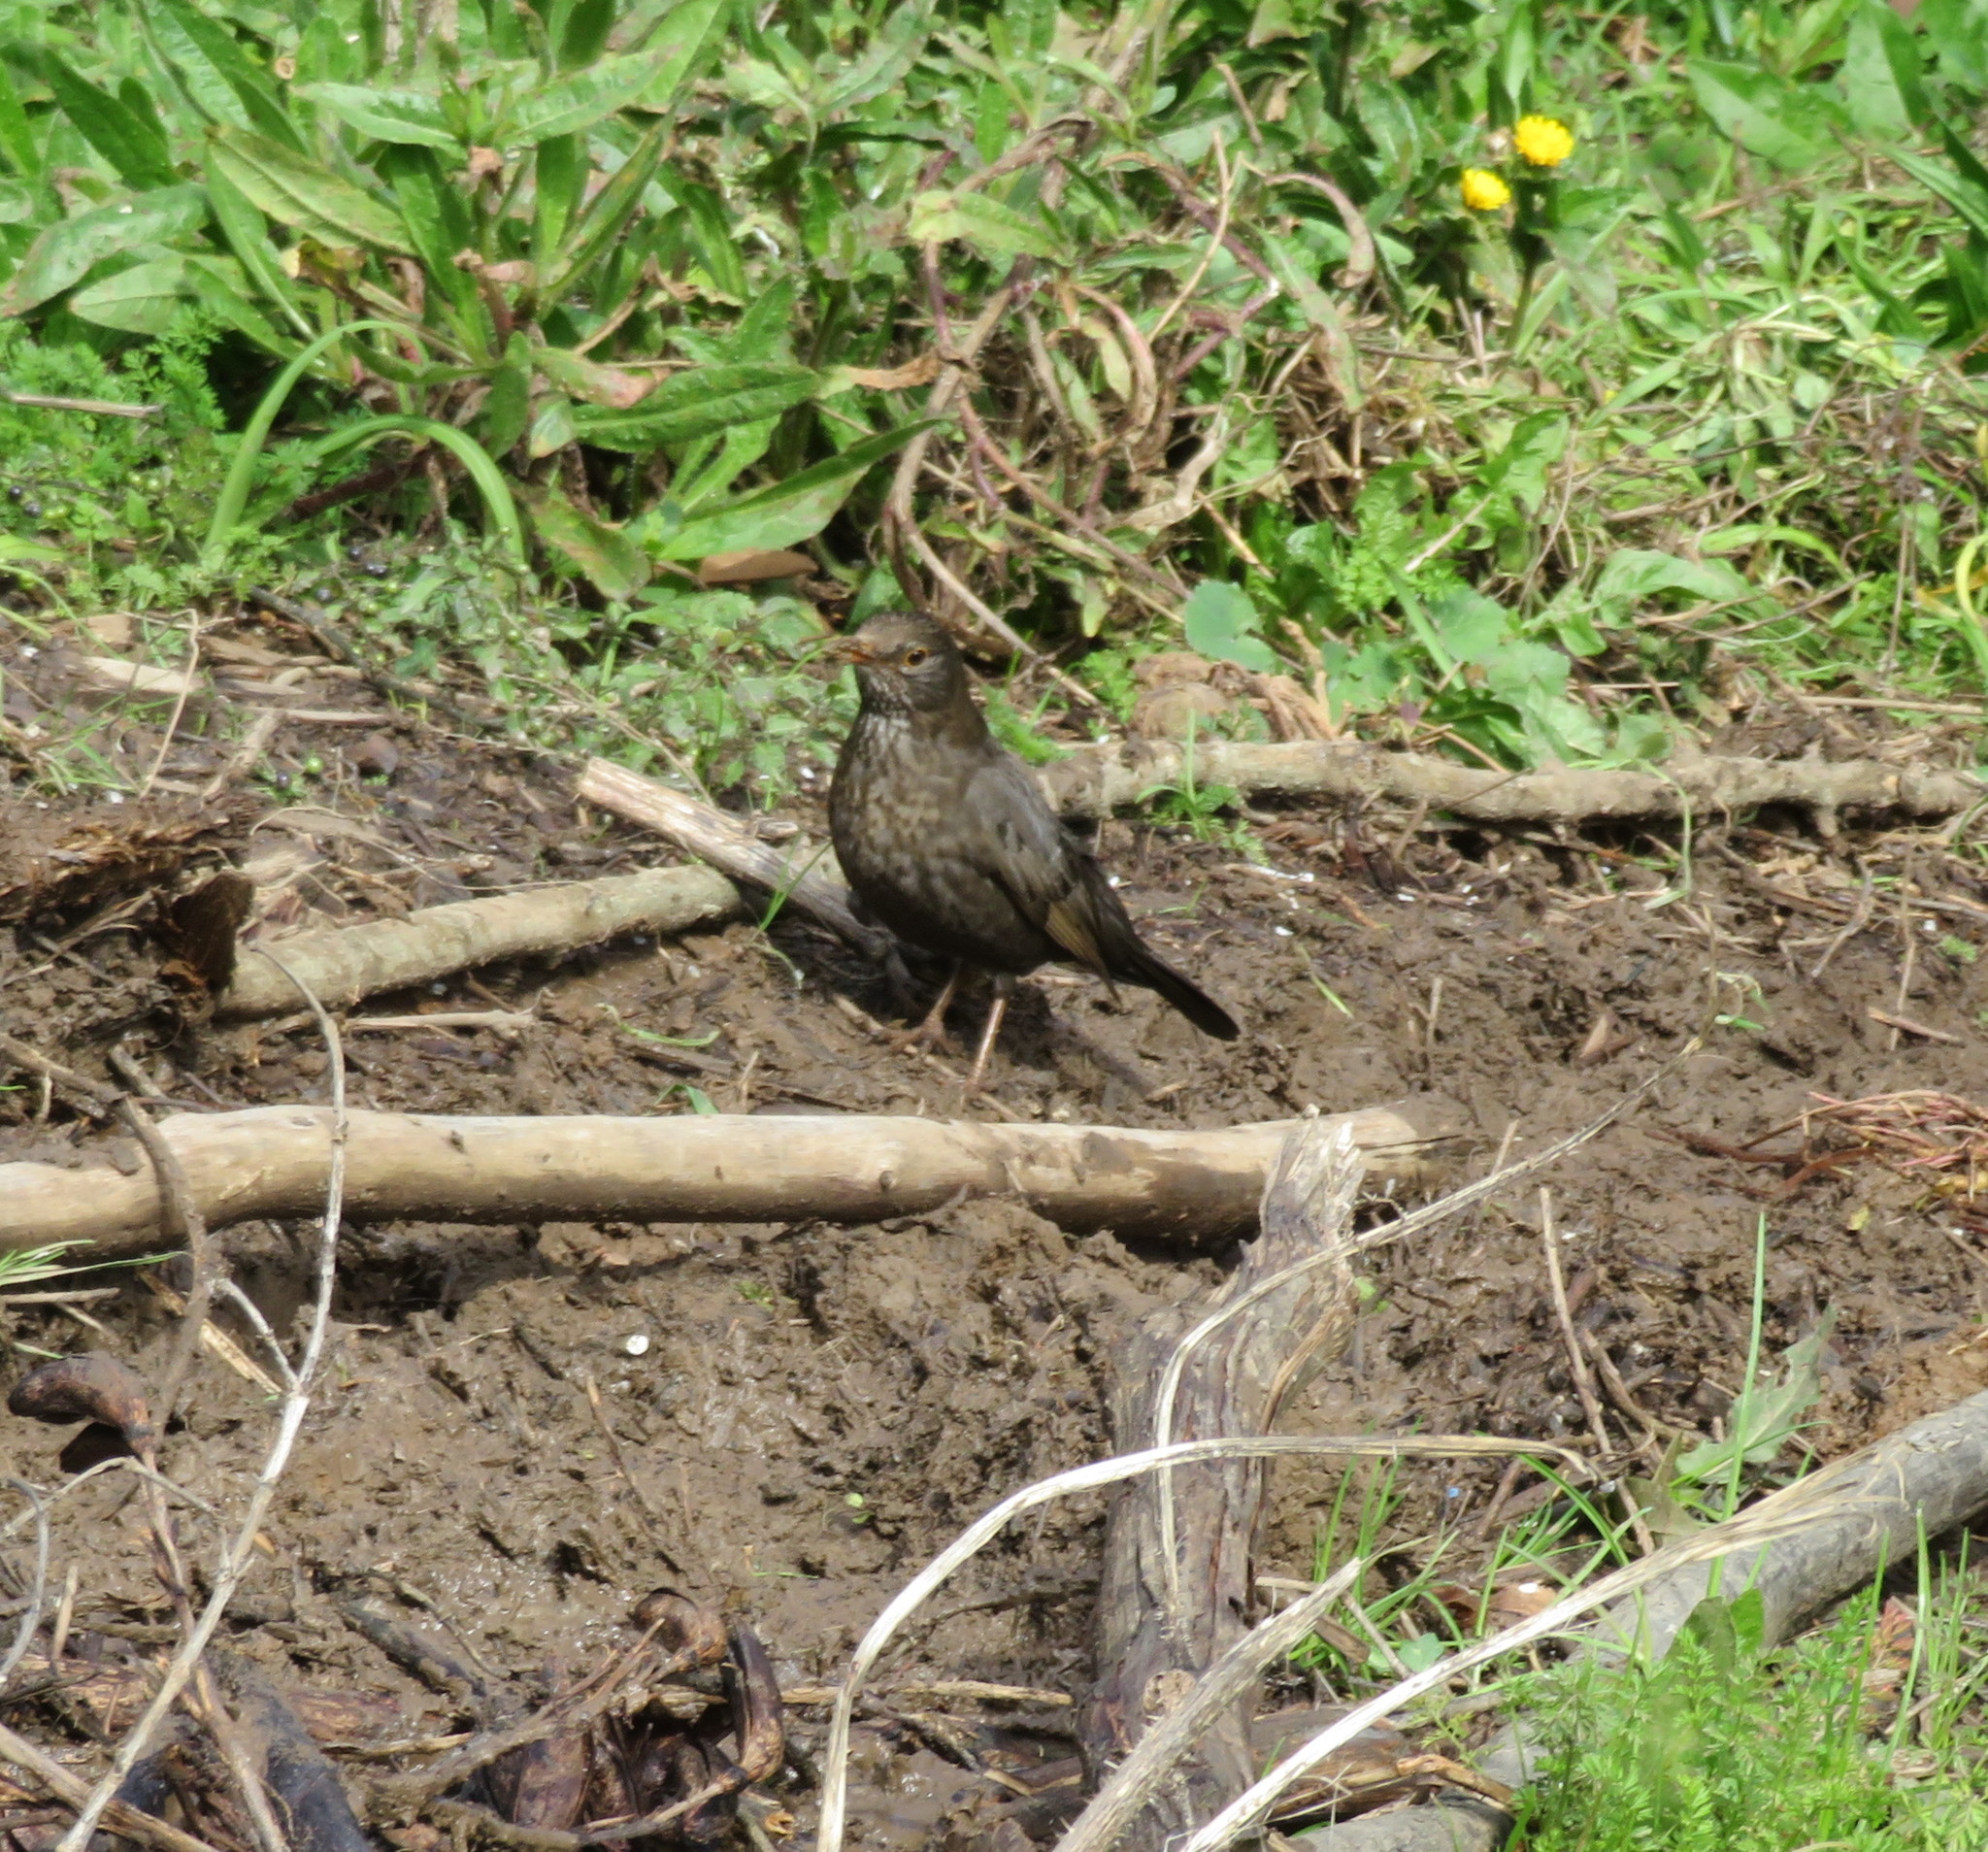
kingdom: Animalia
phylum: Chordata
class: Aves
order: Passeriformes
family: Turdidae
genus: Turdus
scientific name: Turdus merula
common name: Common blackbird
